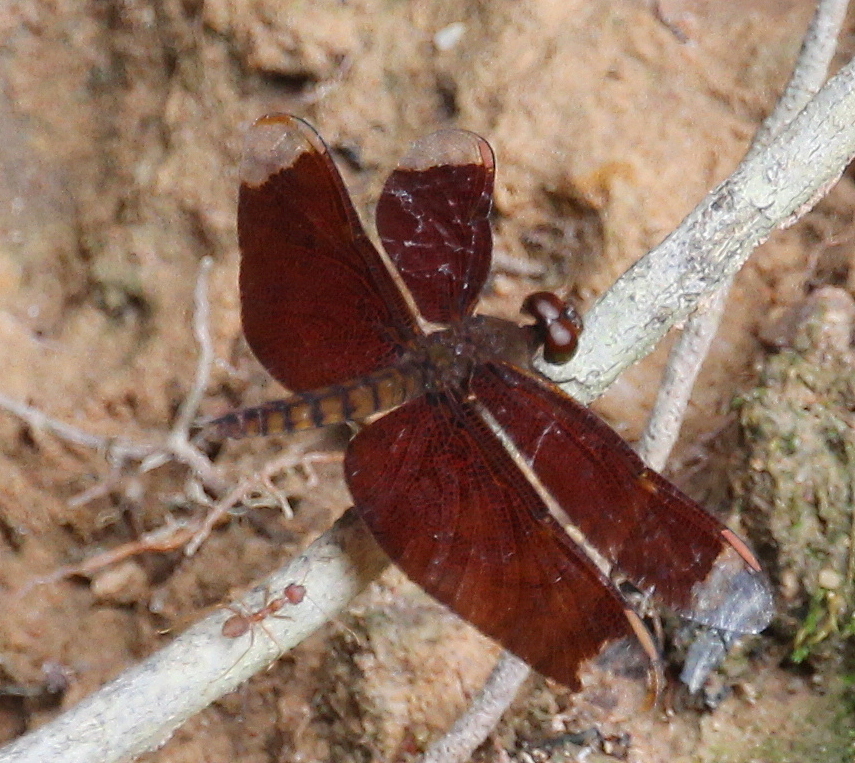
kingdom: Animalia
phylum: Arthropoda
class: Insecta
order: Odonata
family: Libellulidae
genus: Neurothemis
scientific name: Neurothemis fulvia
